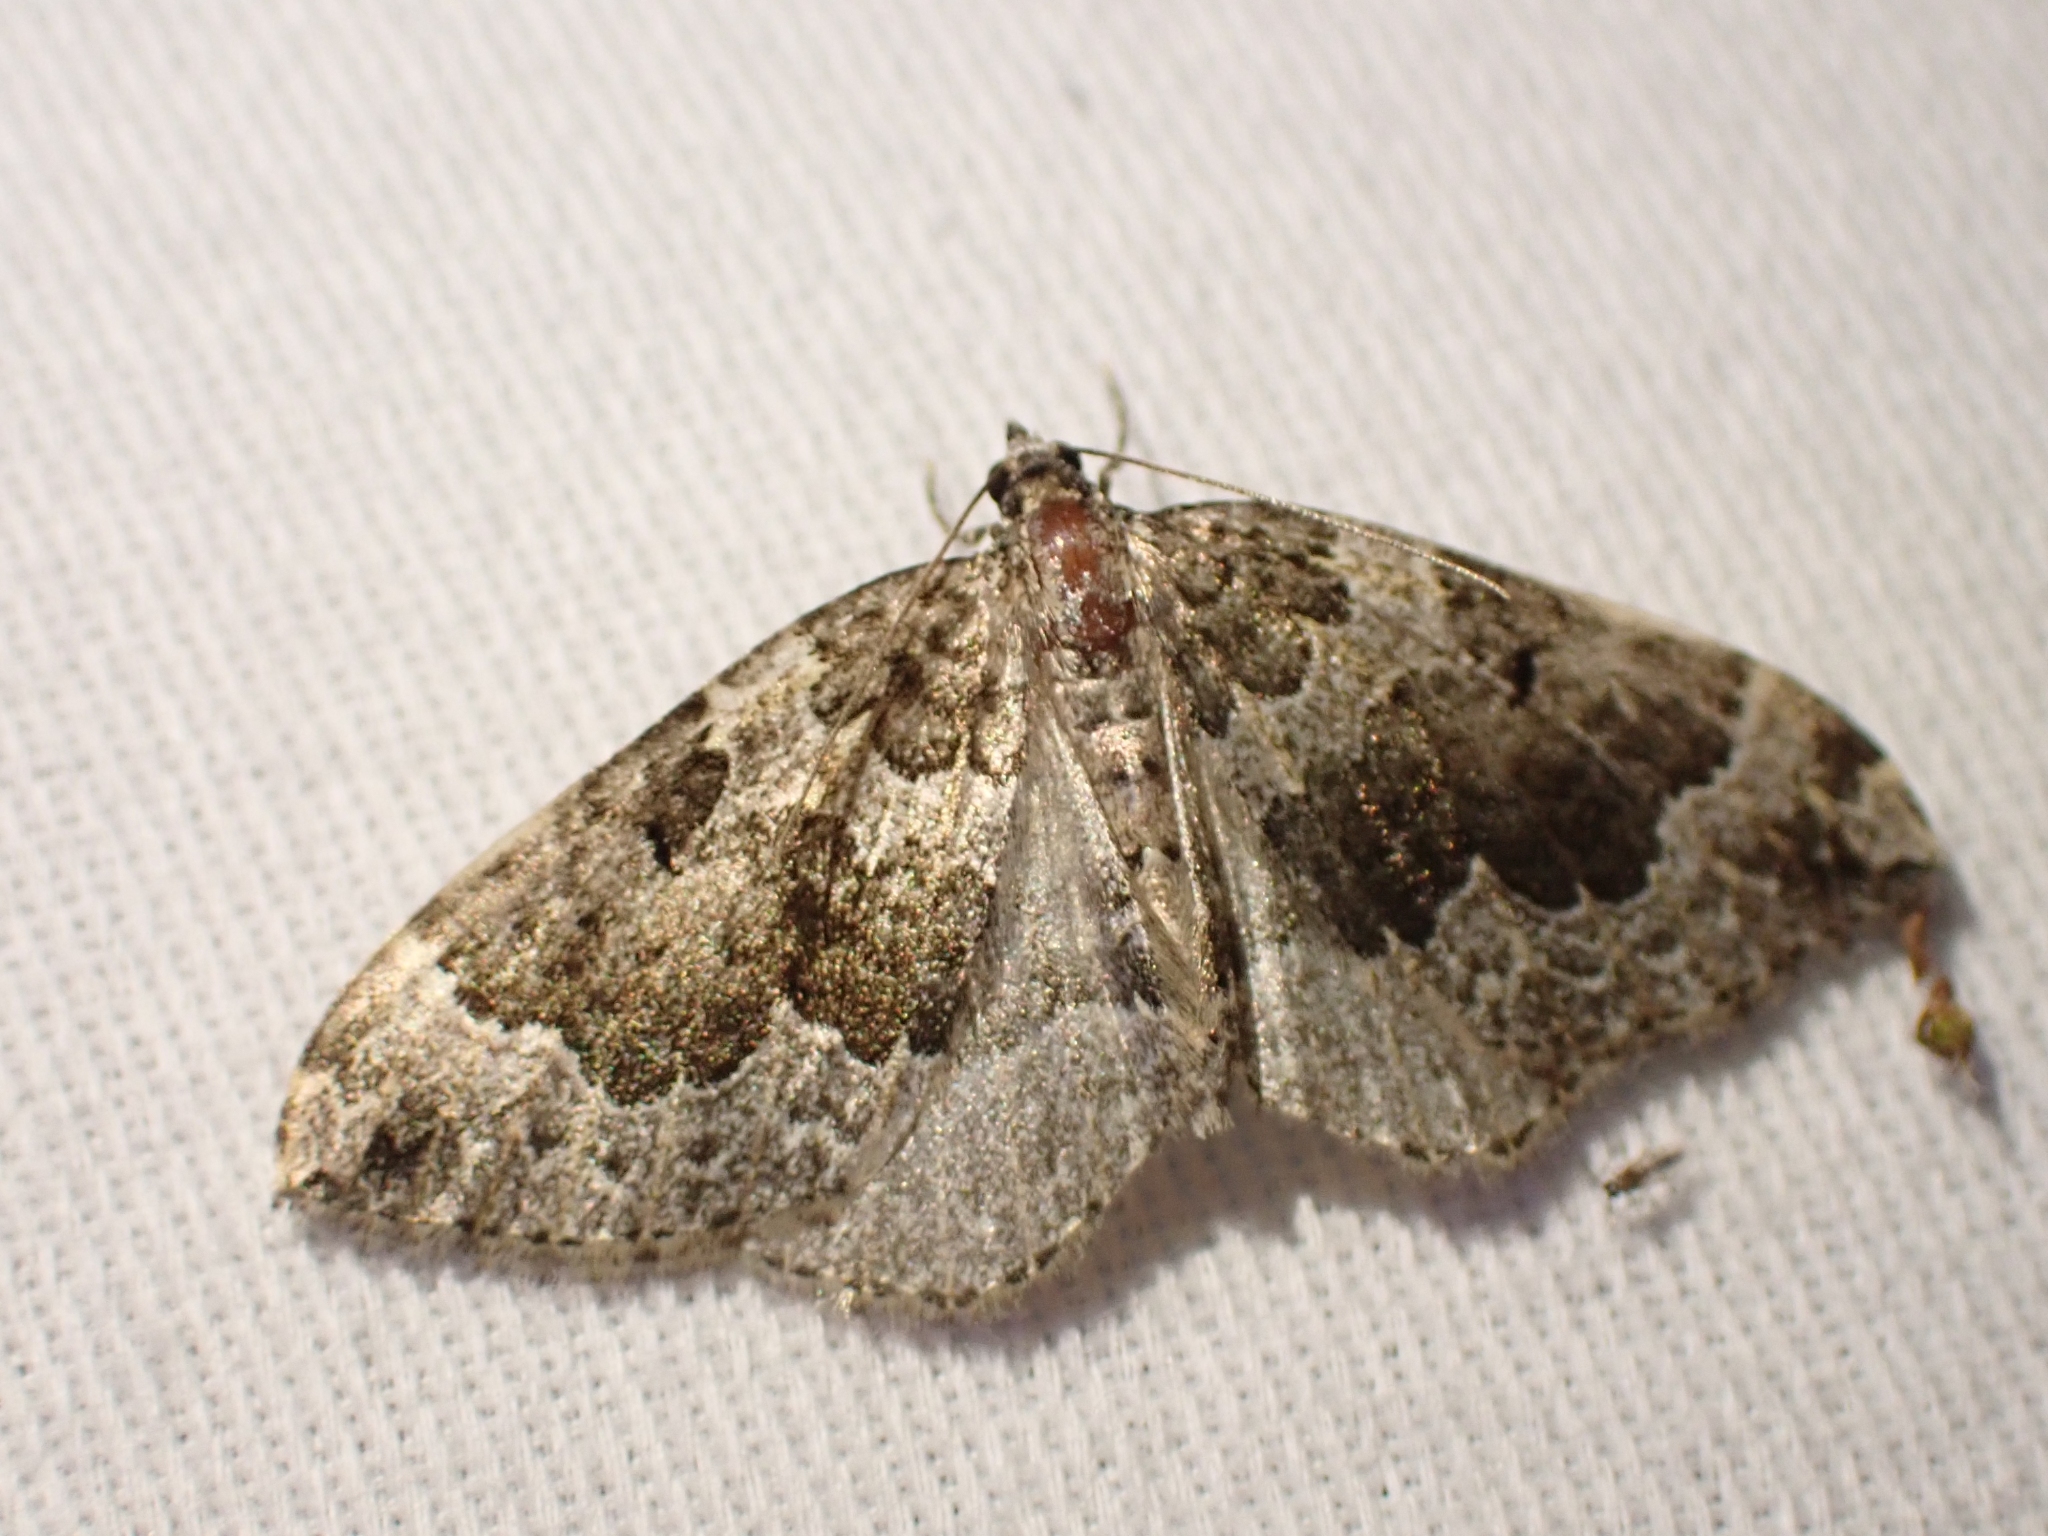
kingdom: Animalia
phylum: Arthropoda
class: Insecta
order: Lepidoptera
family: Geometridae
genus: Eustroma
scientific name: Eustroma semiatrata
